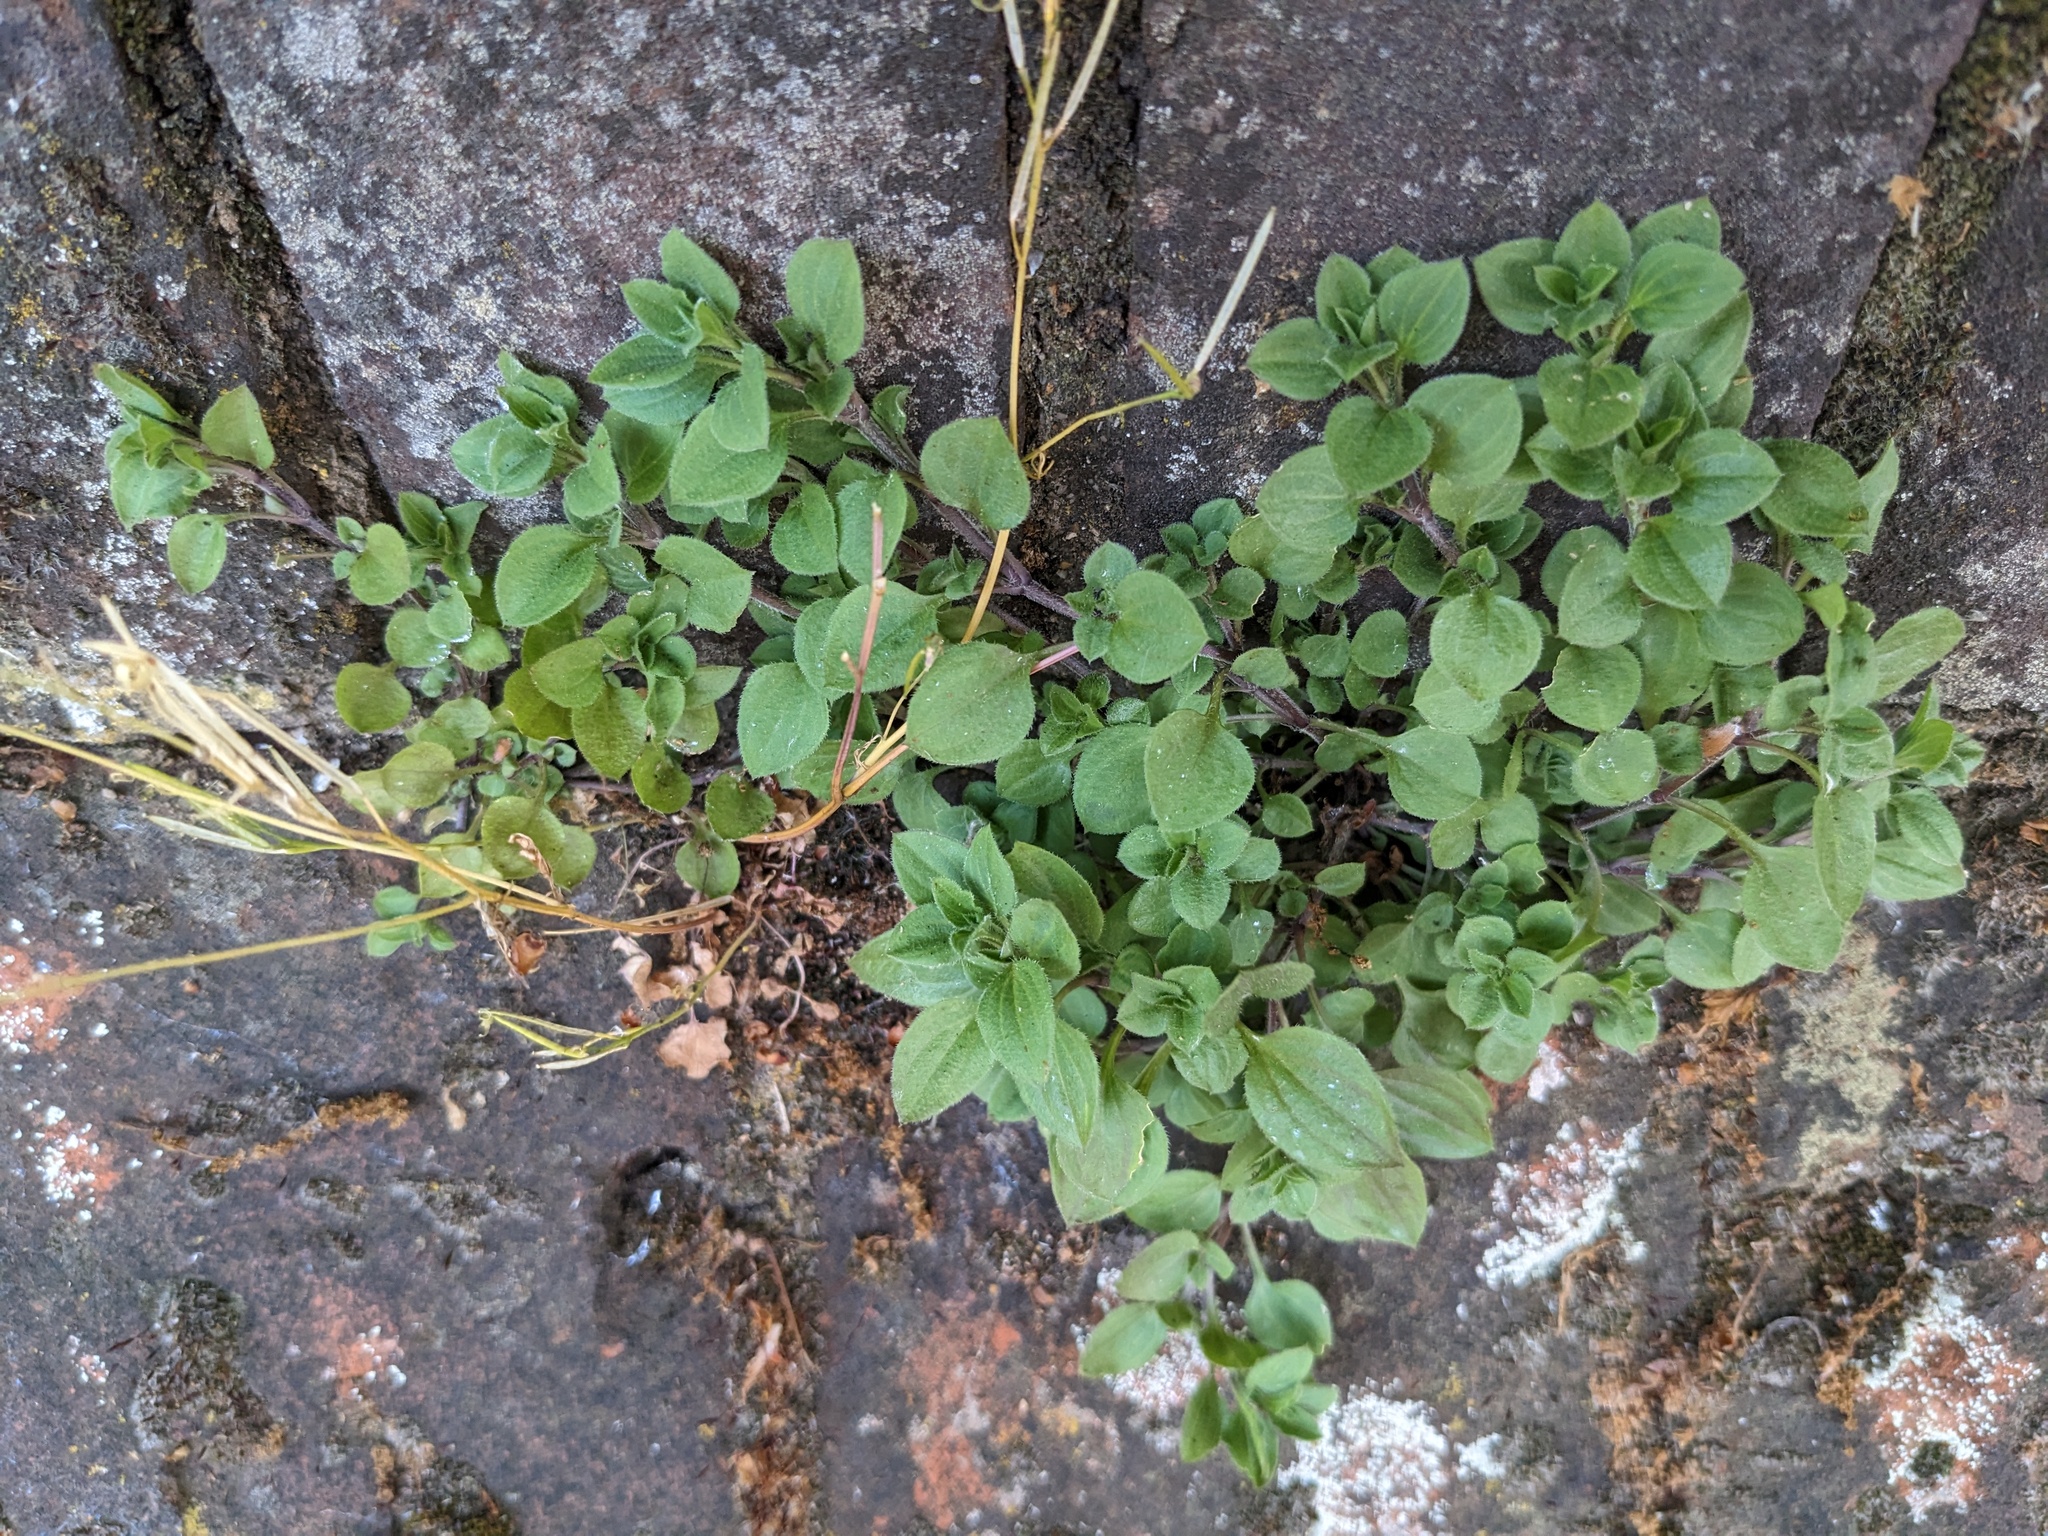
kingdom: Plantae
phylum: Tracheophyta
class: Magnoliopsida
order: Rosales
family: Urticaceae
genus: Parietaria
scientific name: Parietaria judaica
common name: Pellitory-of-the-wall
